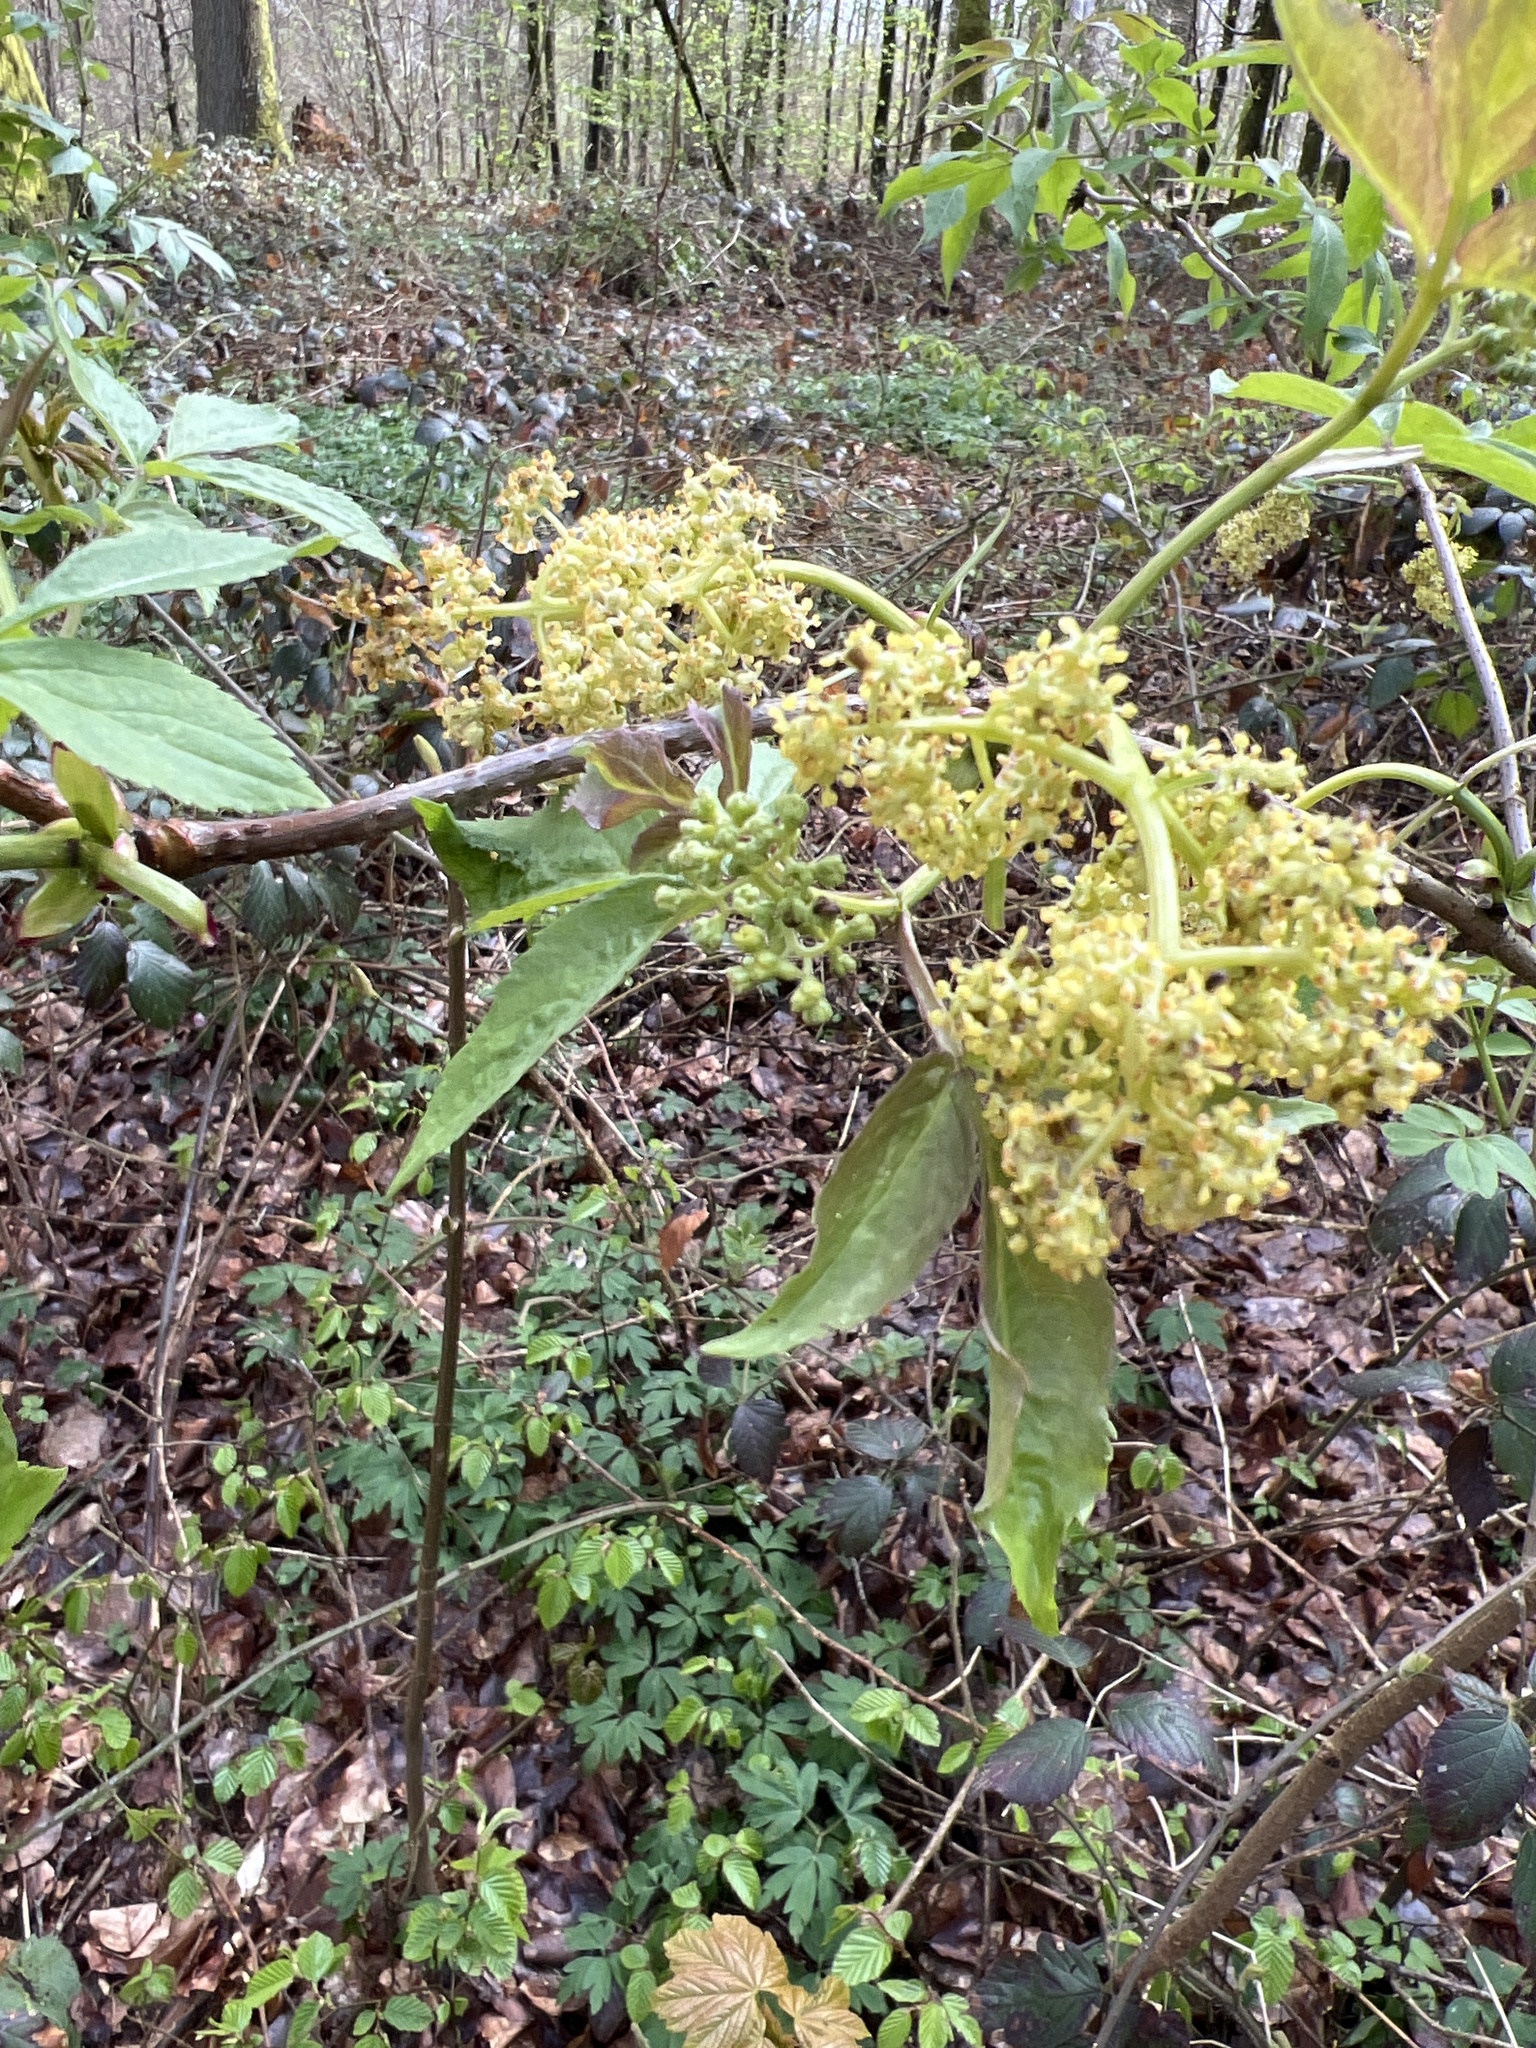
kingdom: Plantae
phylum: Tracheophyta
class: Magnoliopsida
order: Dipsacales
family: Viburnaceae
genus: Sambucus
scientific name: Sambucus racemosa
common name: Red-berried elder
